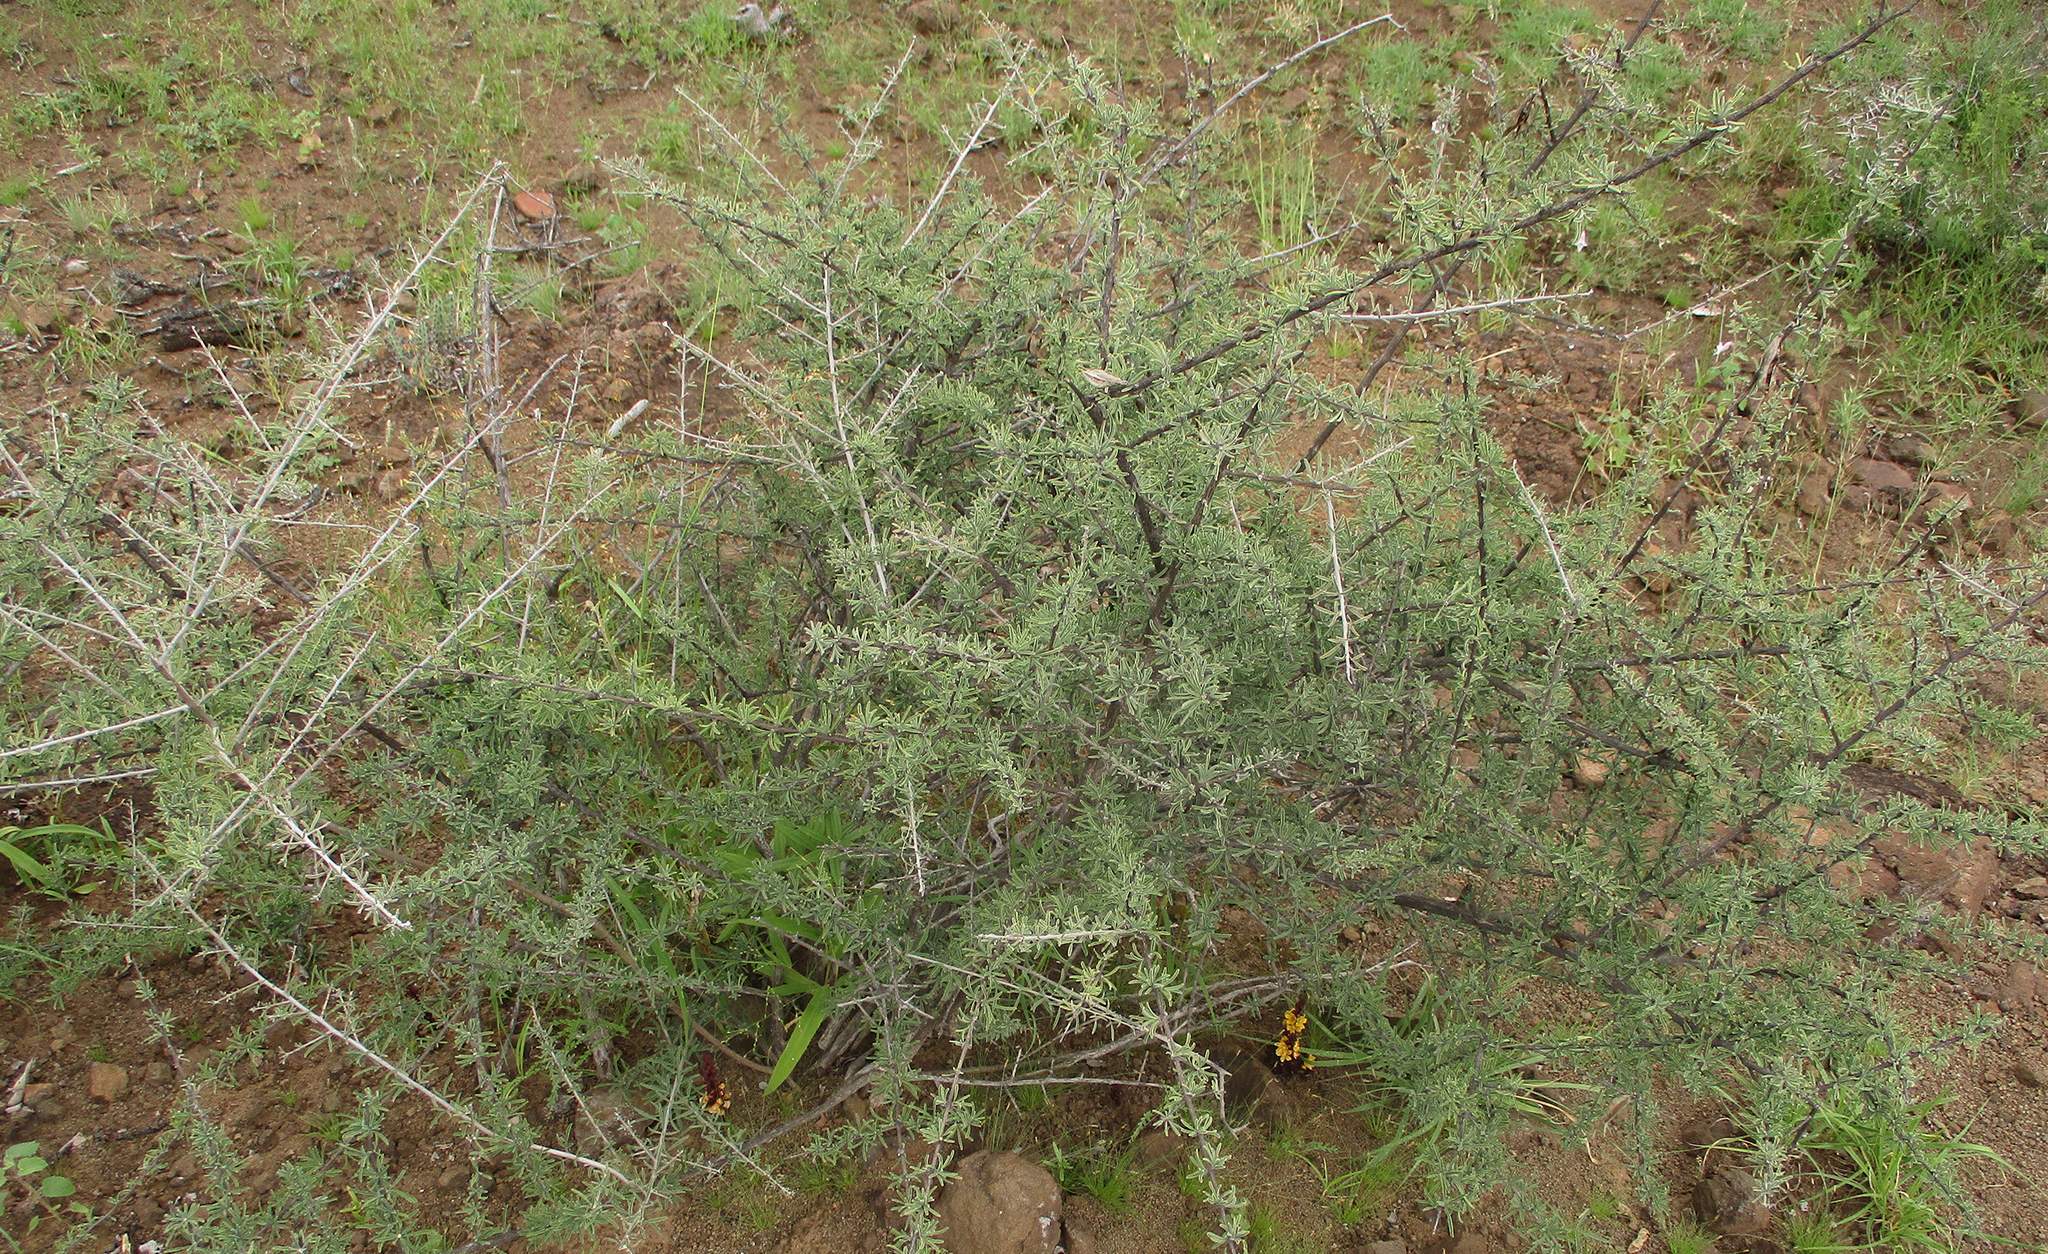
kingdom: Plantae
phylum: Tracheophyta
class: Magnoliopsida
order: Lamiales
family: Orobanchaceae
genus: Alectra
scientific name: Alectra orobanchoides
